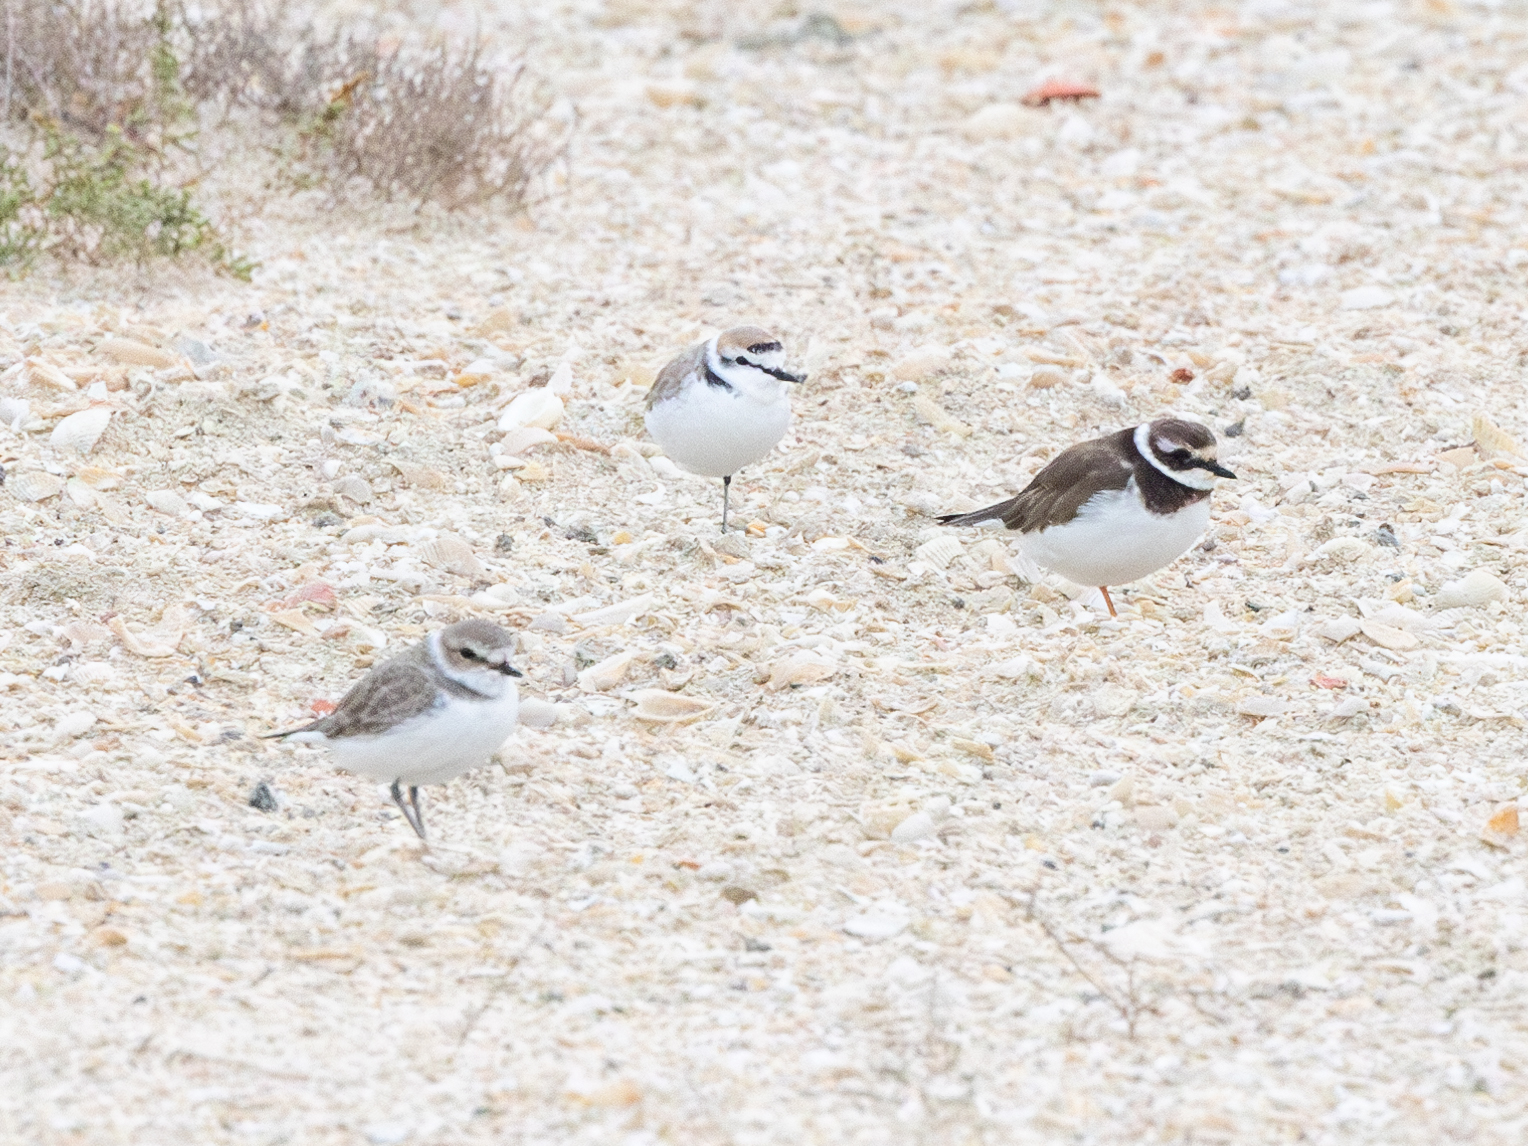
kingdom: Animalia
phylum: Chordata
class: Aves
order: Charadriiformes
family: Charadriidae
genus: Charadrius
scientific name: Charadrius alexandrinus
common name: Kentish plover
